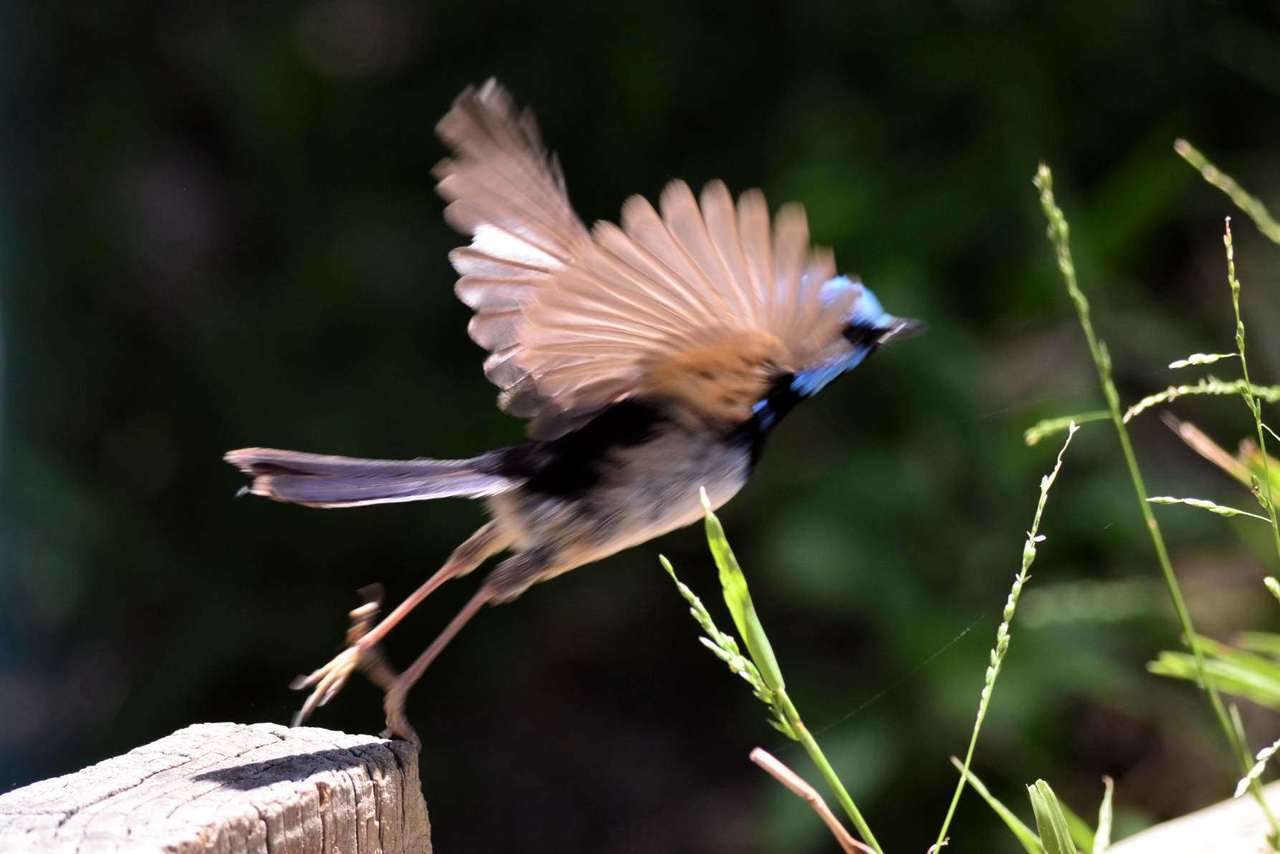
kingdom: Animalia
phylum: Chordata
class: Aves
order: Passeriformes
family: Maluridae
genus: Malurus
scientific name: Malurus cyaneus
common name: Superb fairywren
